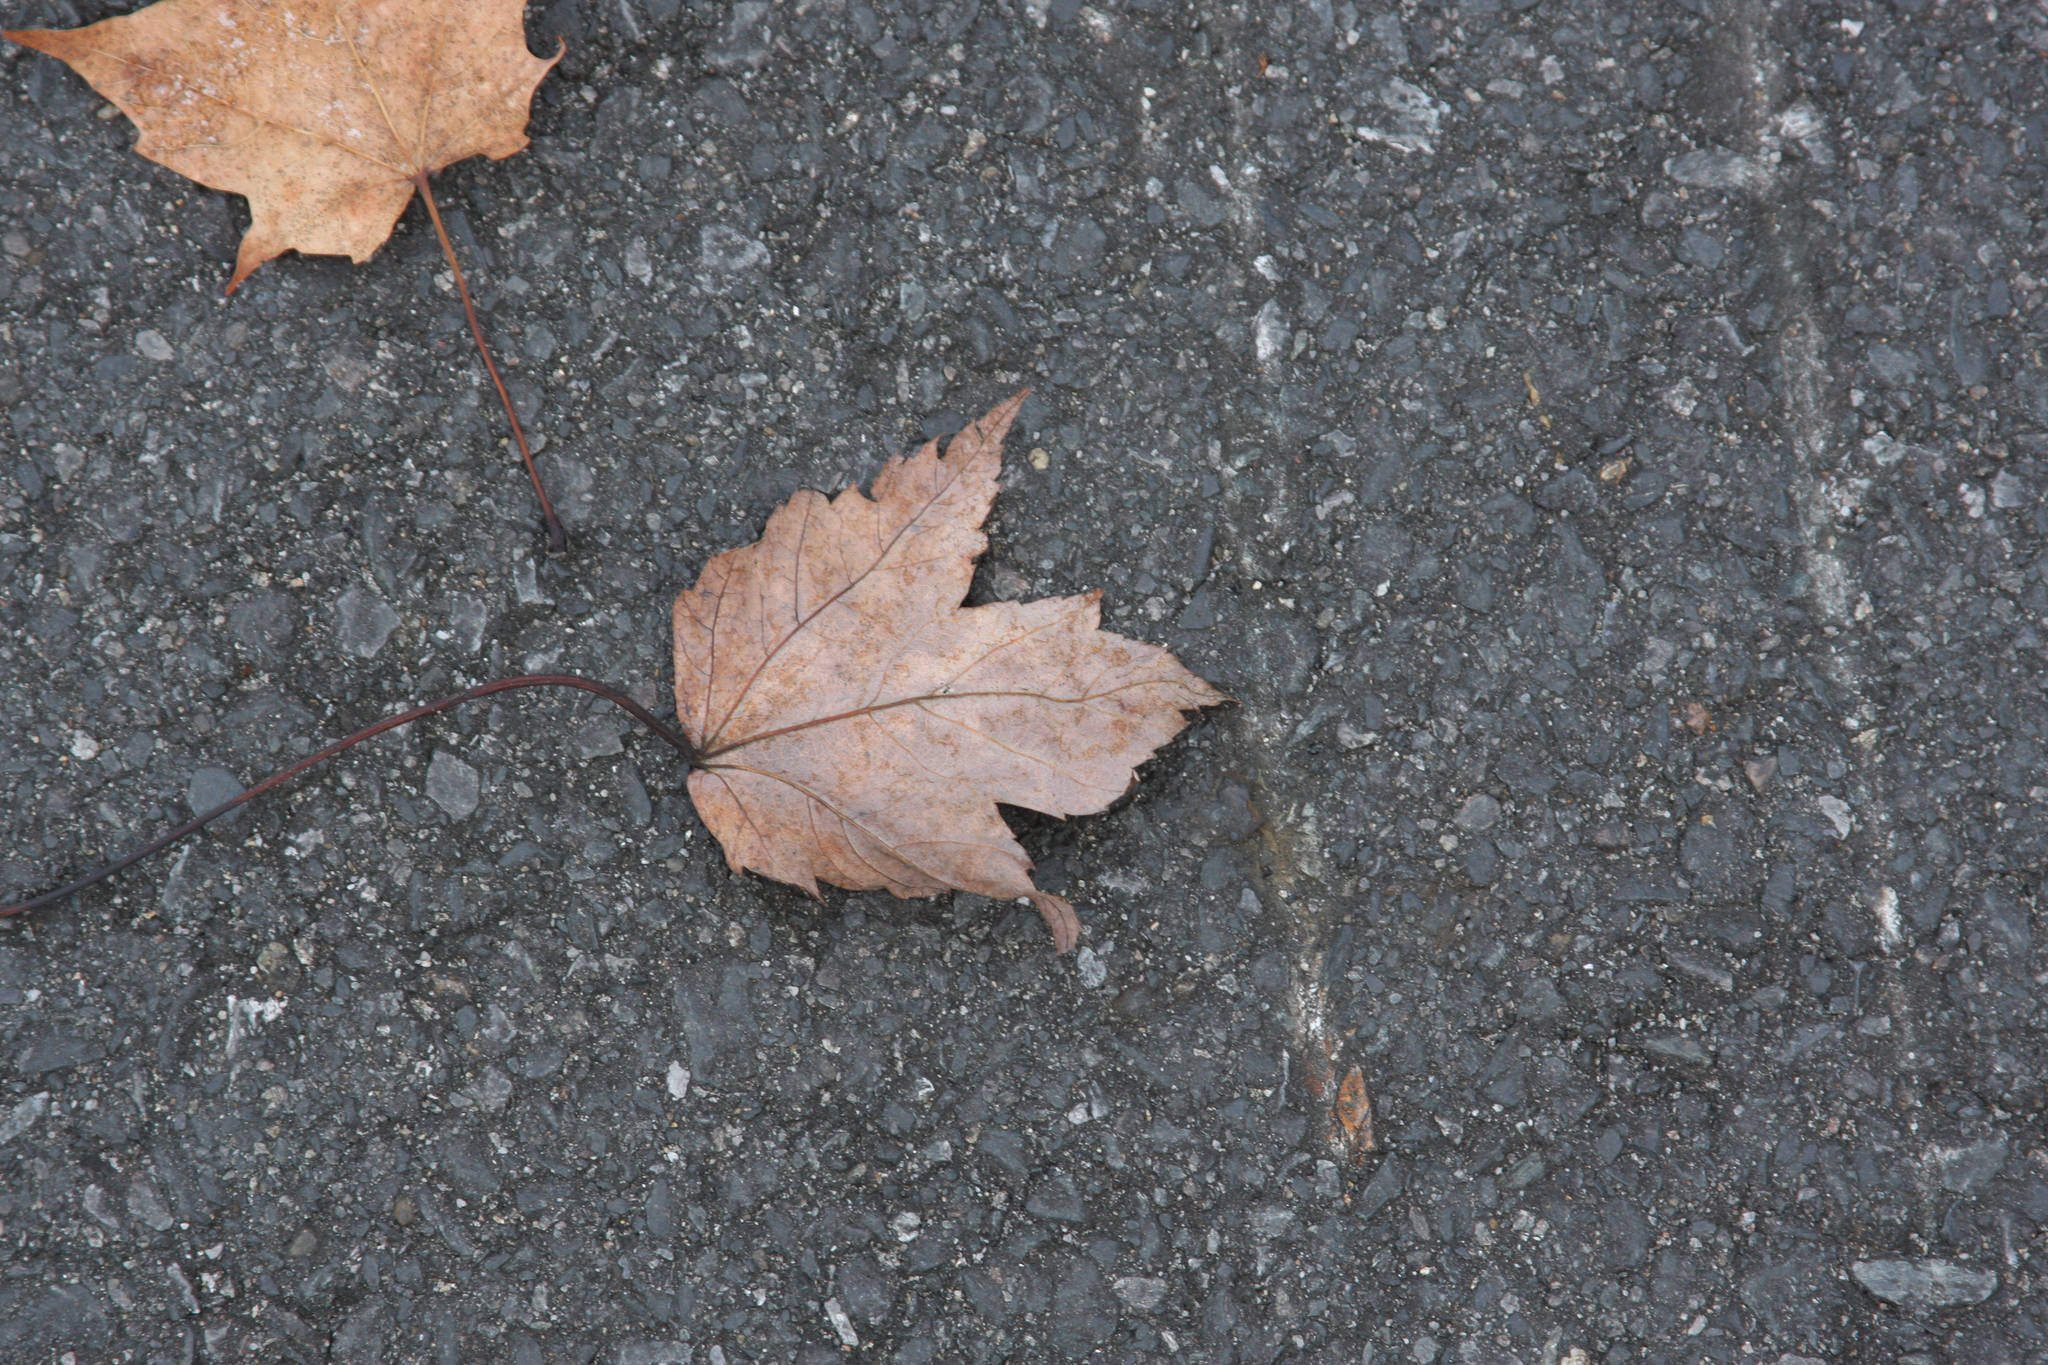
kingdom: Plantae
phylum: Tracheophyta
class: Magnoliopsida
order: Sapindales
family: Sapindaceae
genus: Acer
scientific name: Acer rubrum
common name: Red maple
